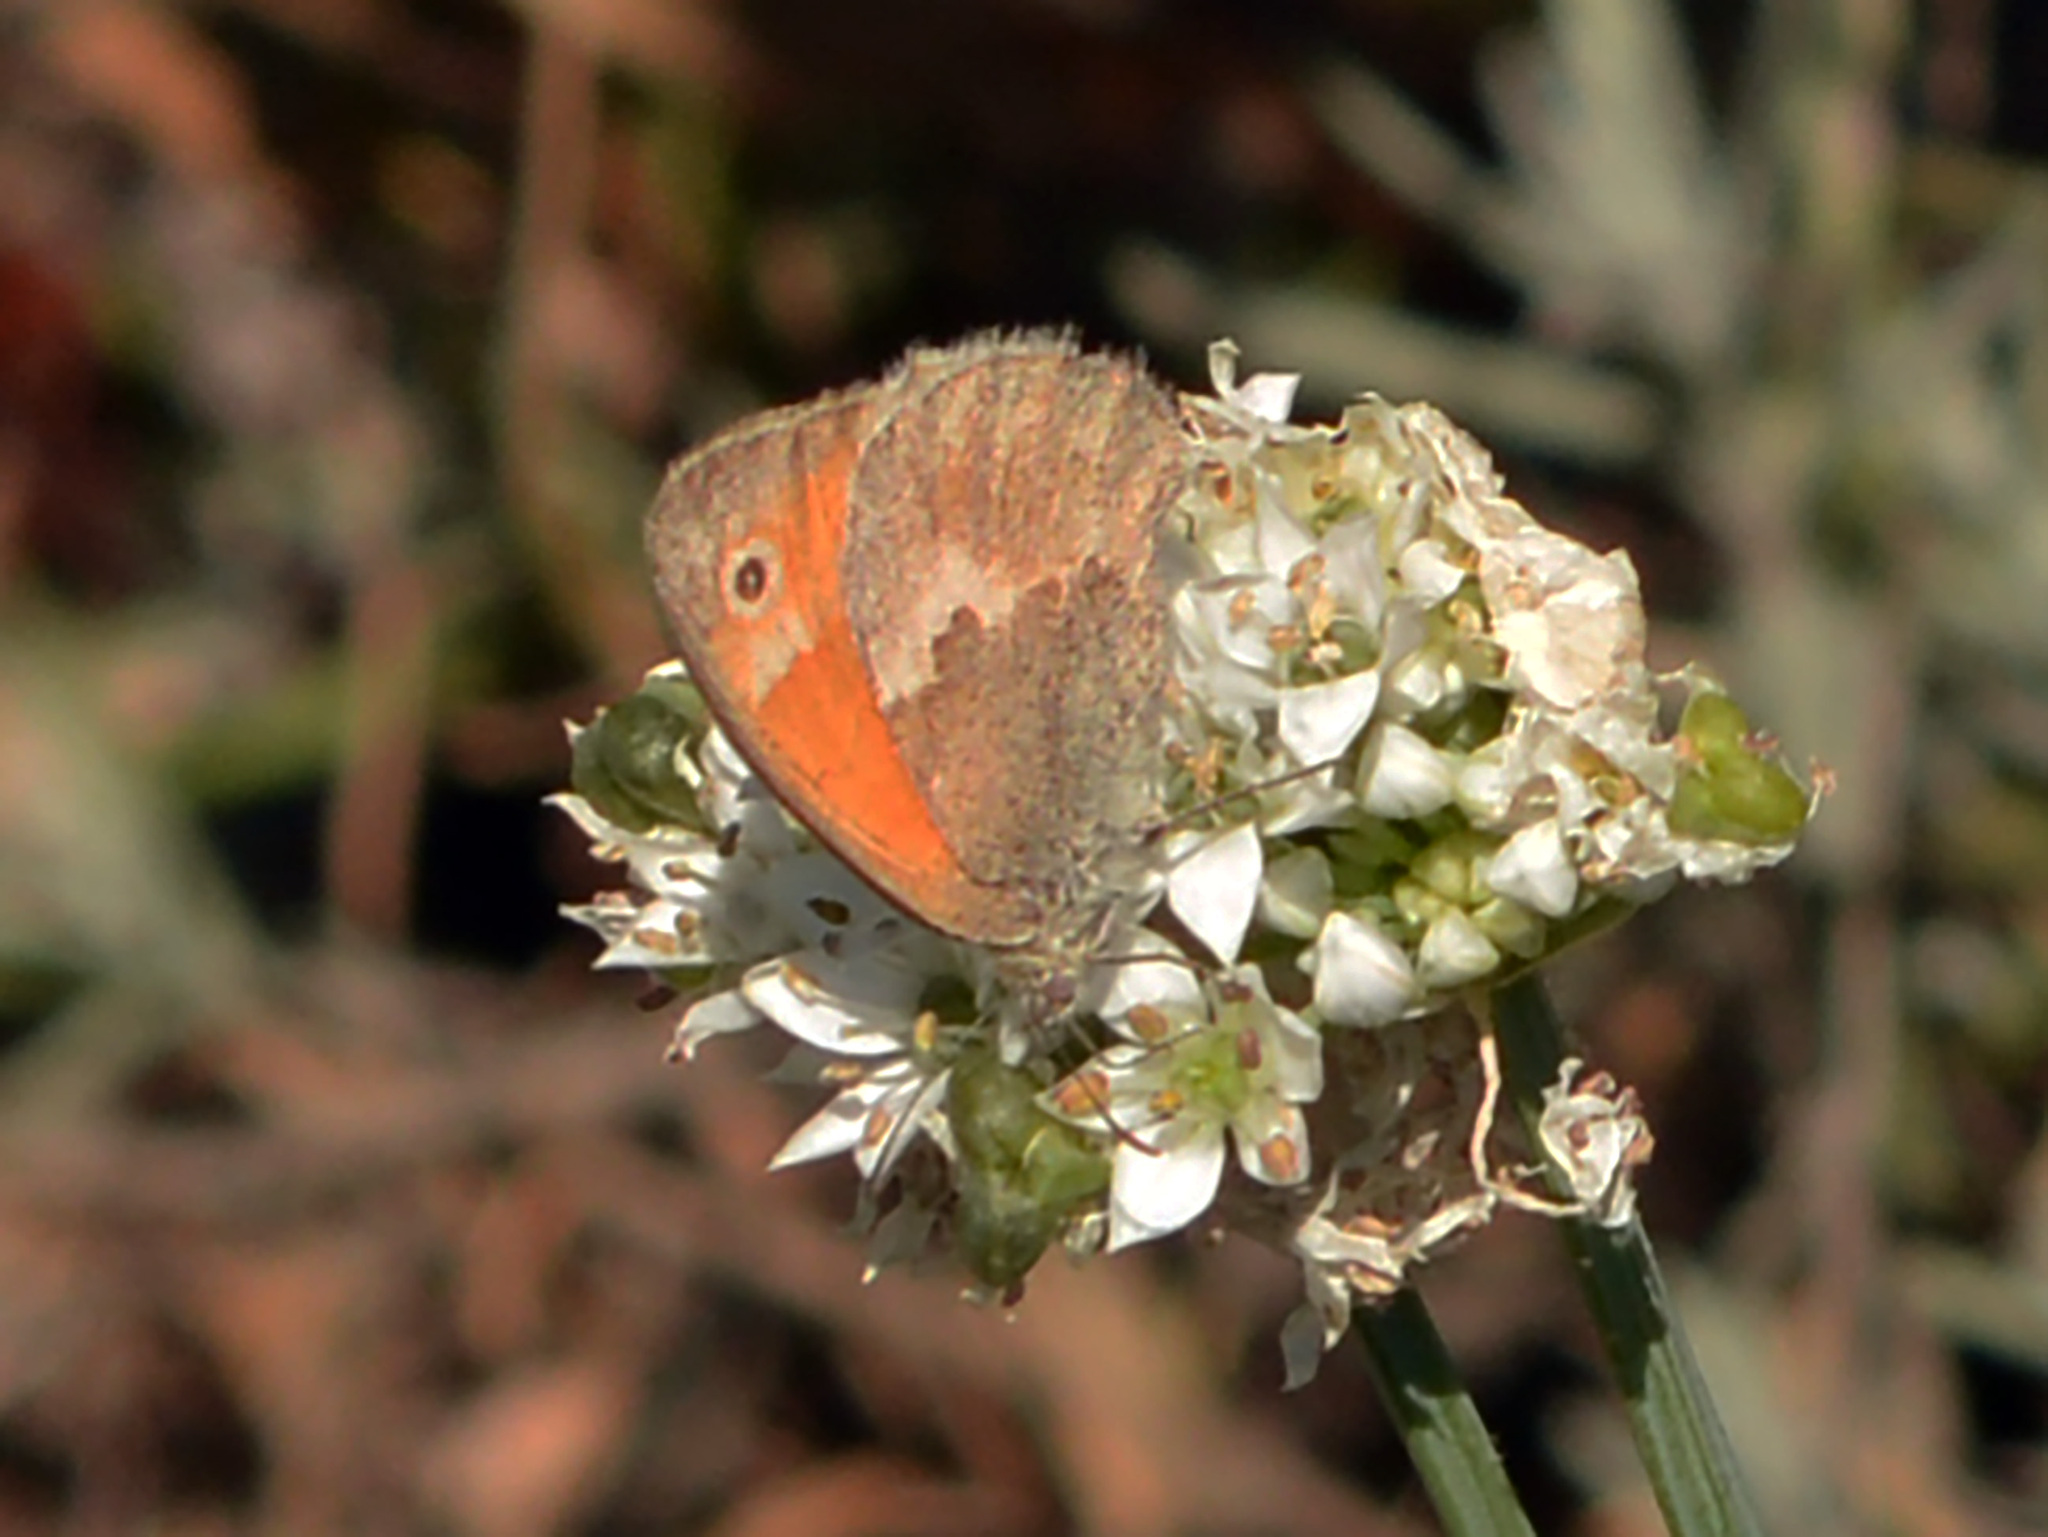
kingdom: Animalia
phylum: Arthropoda
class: Insecta
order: Lepidoptera
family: Nymphalidae
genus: Coenonympha
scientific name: Coenonympha pamphilus
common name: Small heath
